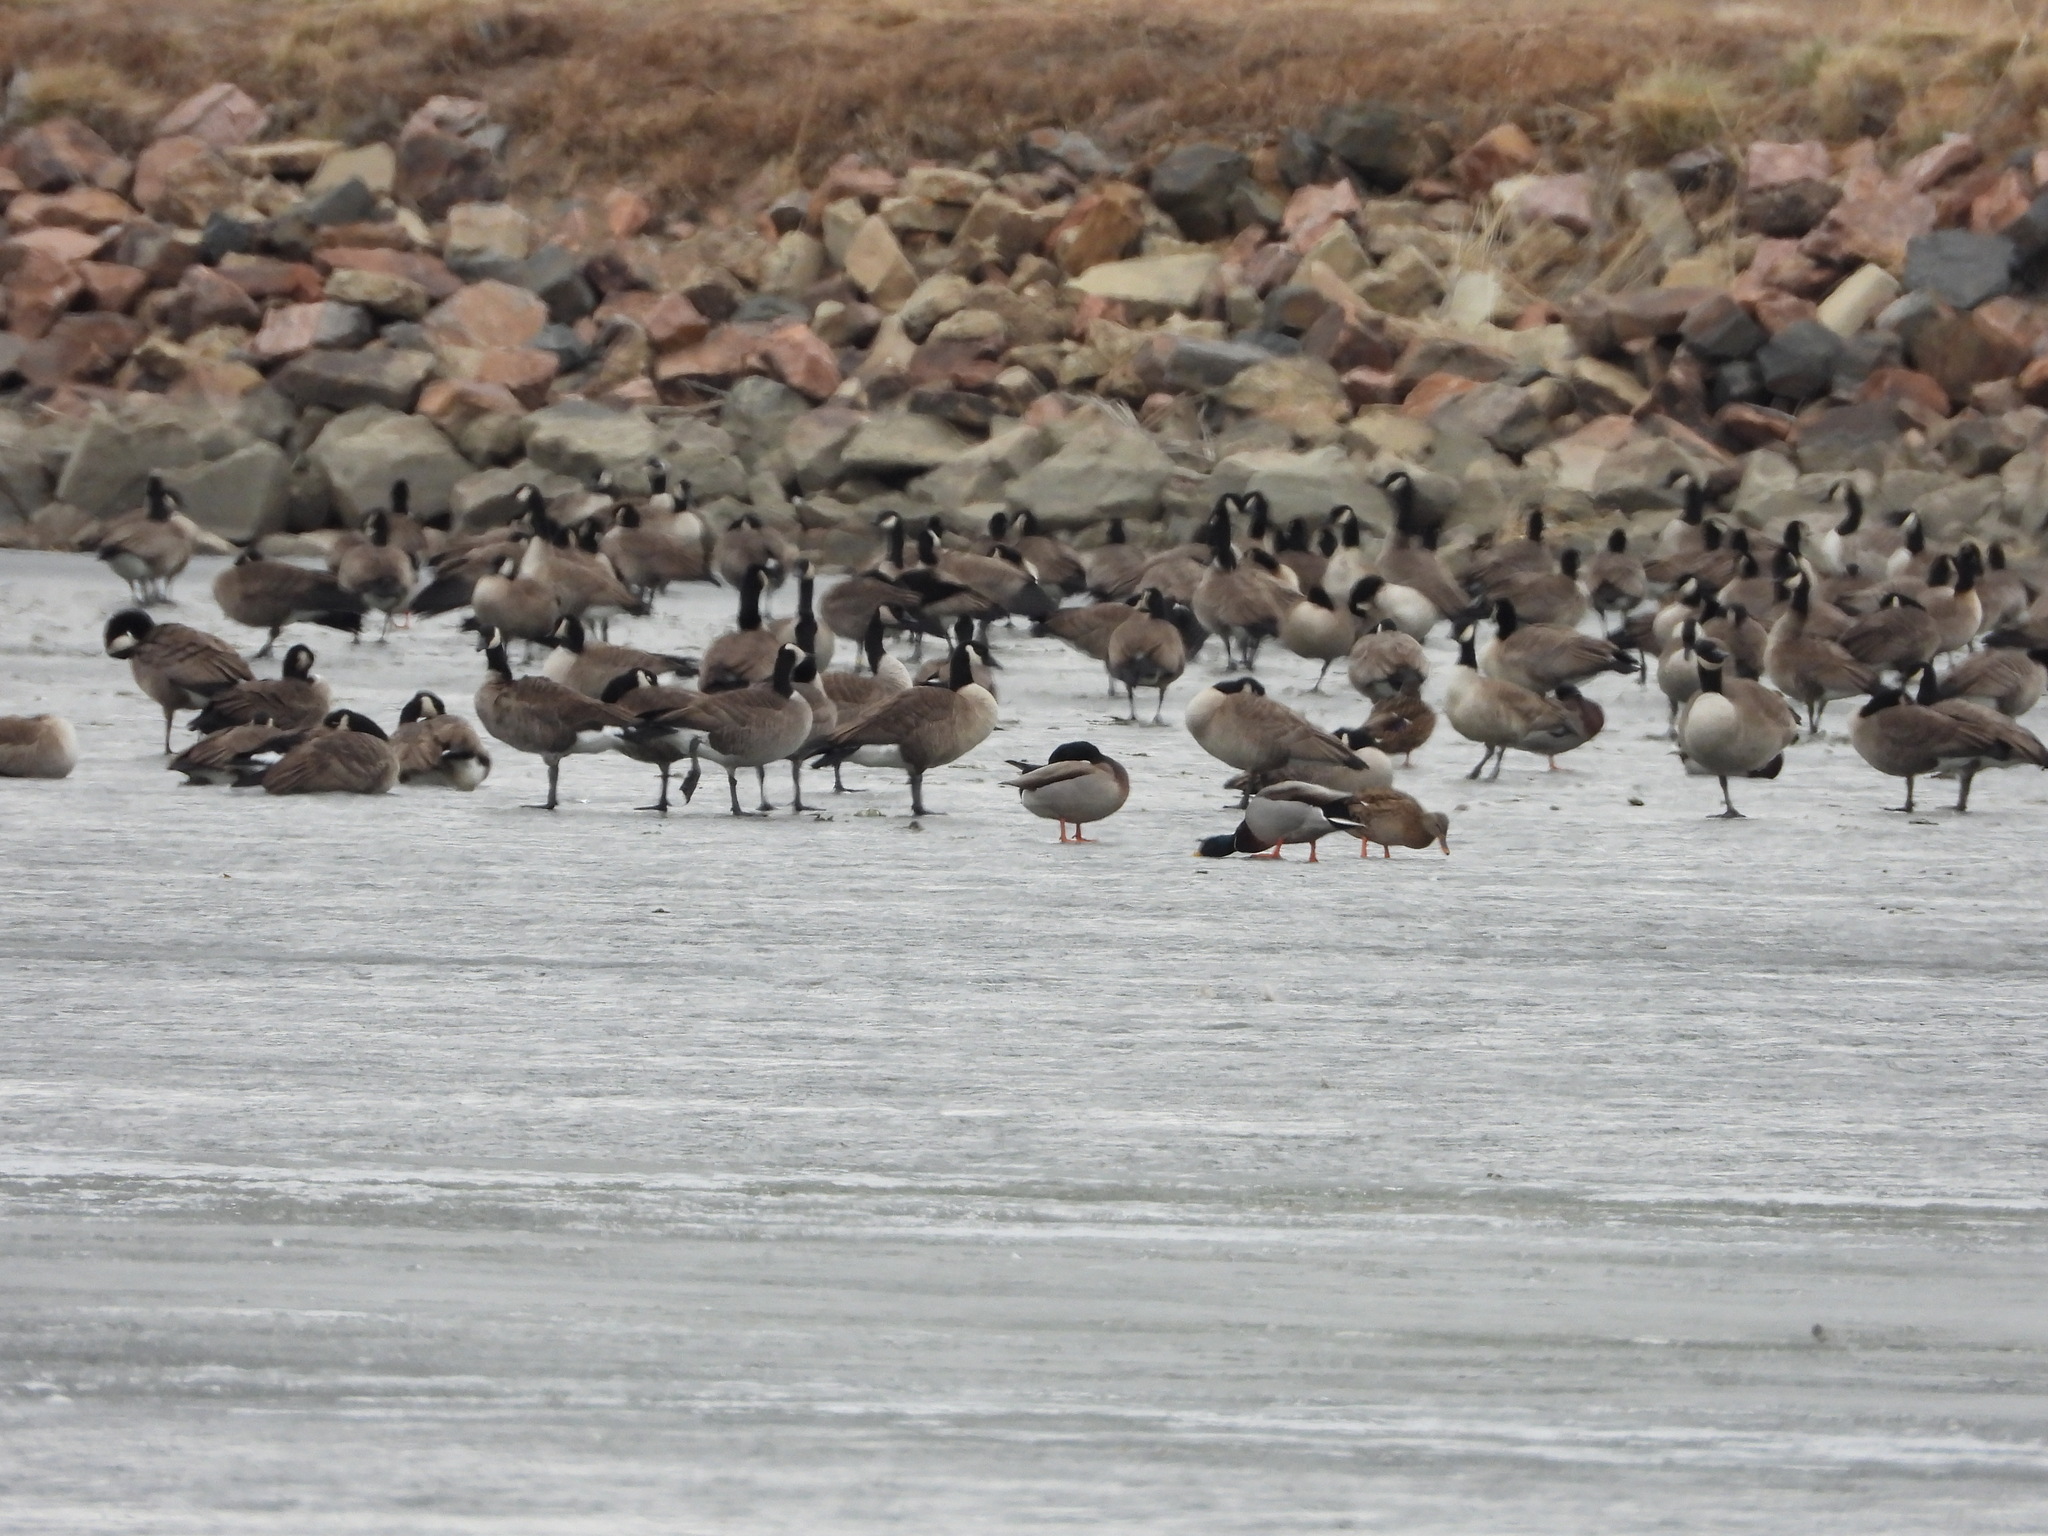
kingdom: Animalia
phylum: Chordata
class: Aves
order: Anseriformes
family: Anatidae
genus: Anas
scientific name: Anas platyrhynchos
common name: Mallard
